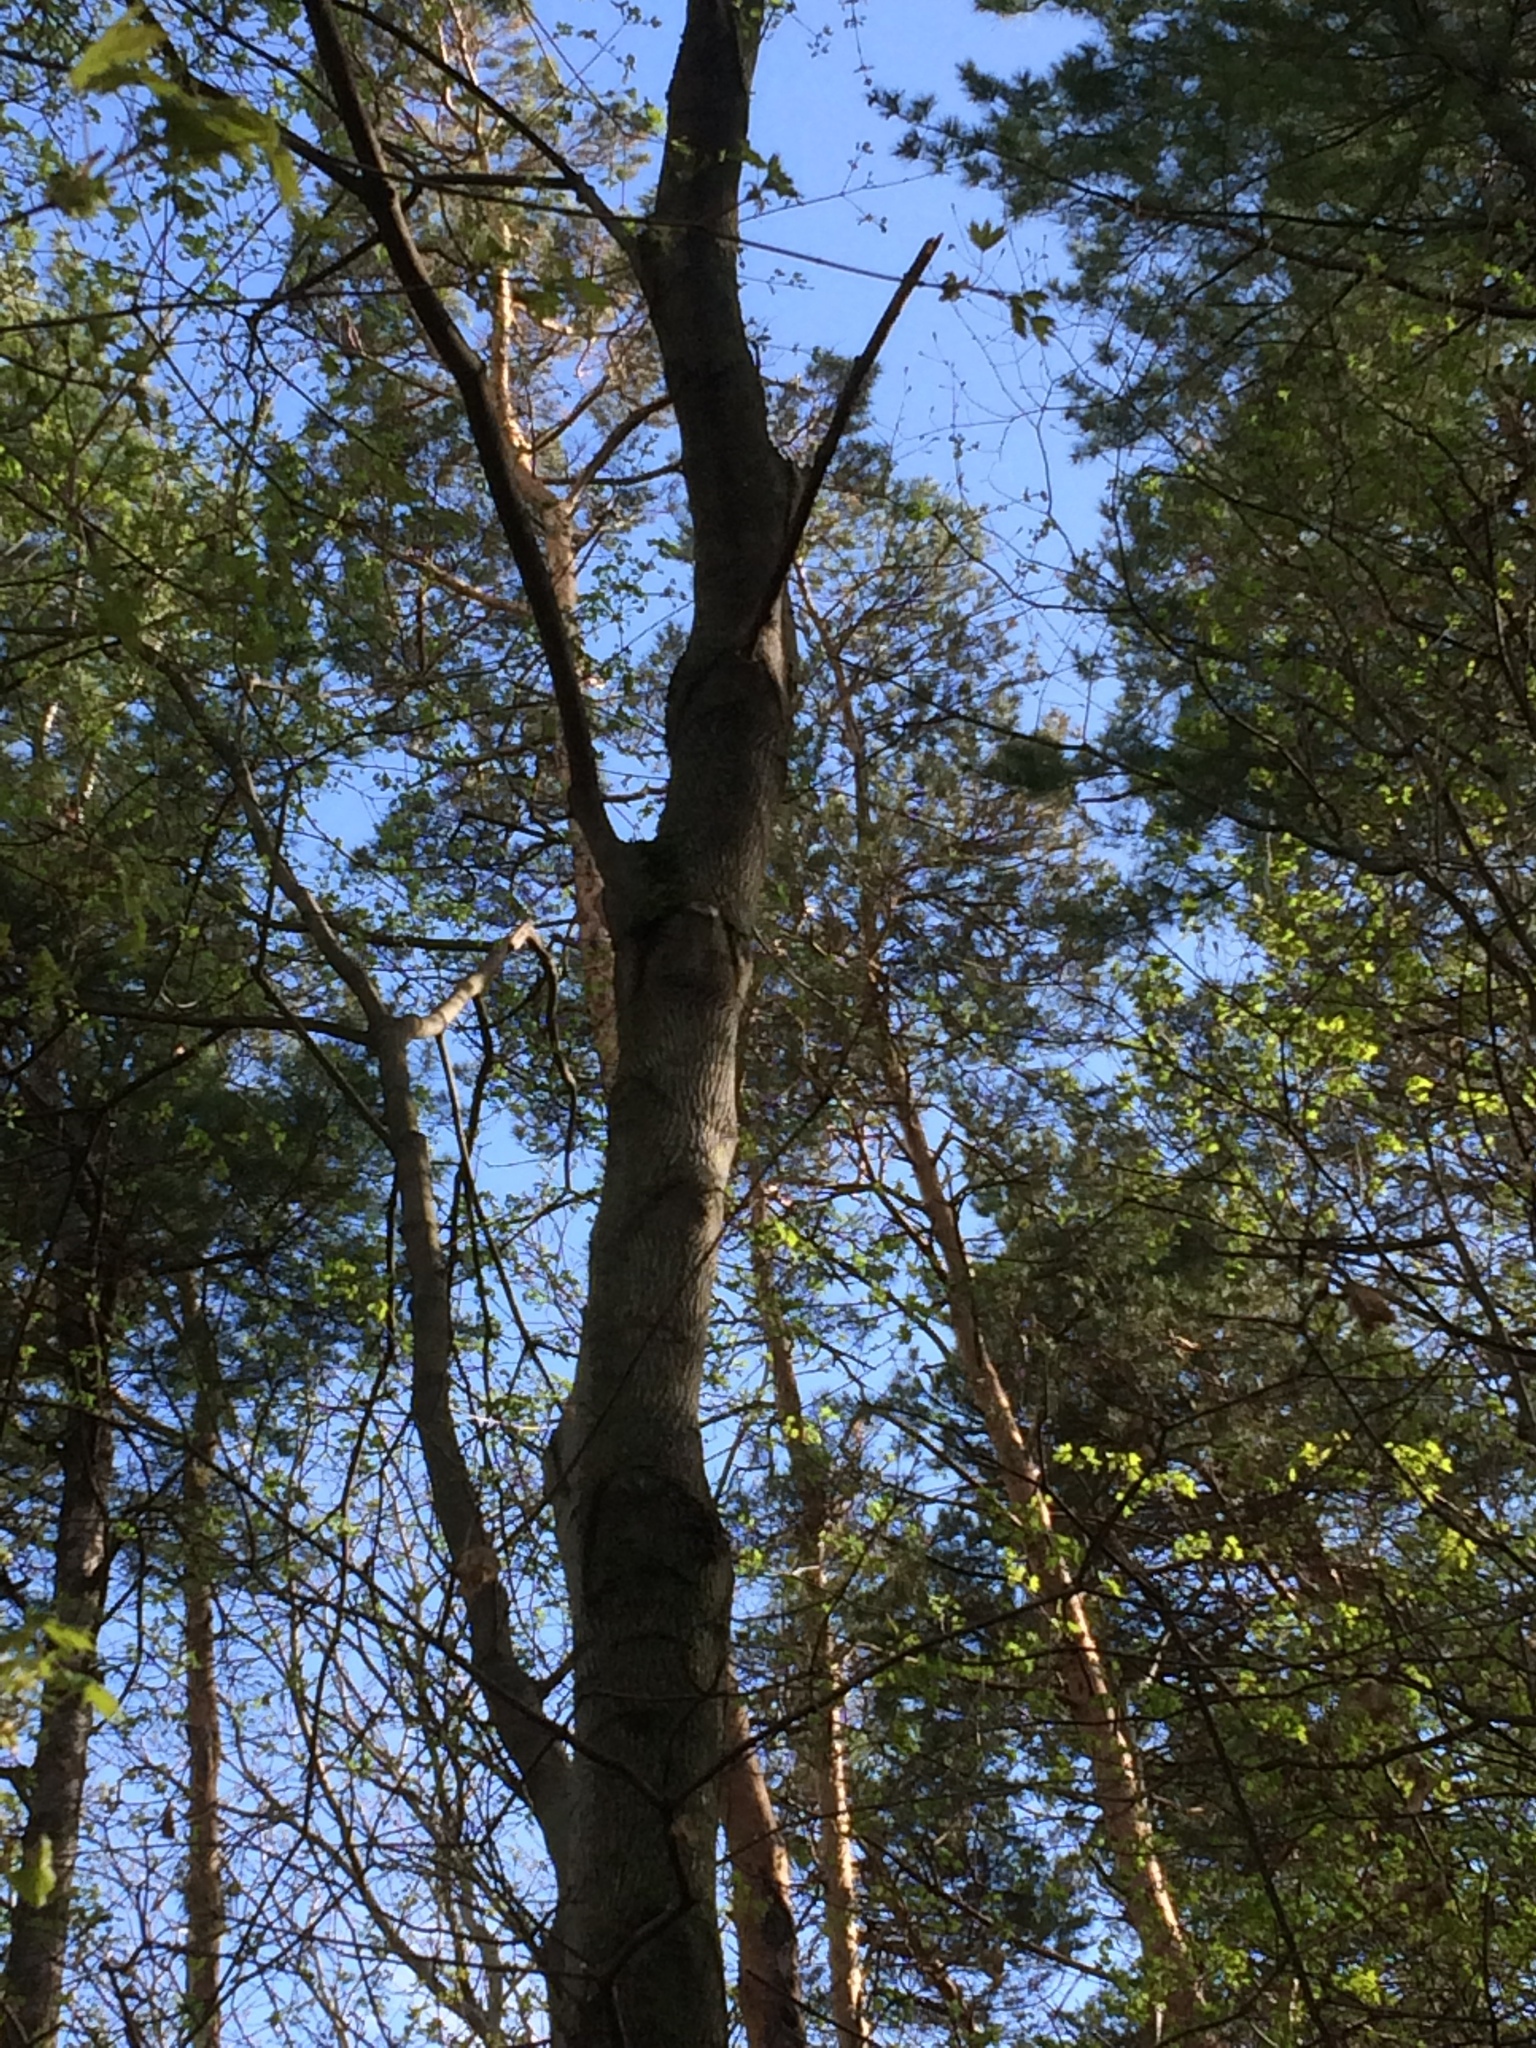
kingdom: Plantae
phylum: Tracheophyta
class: Pinopsida
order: Pinales
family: Pinaceae
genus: Pinus
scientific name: Pinus sylvestris
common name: Scots pine
